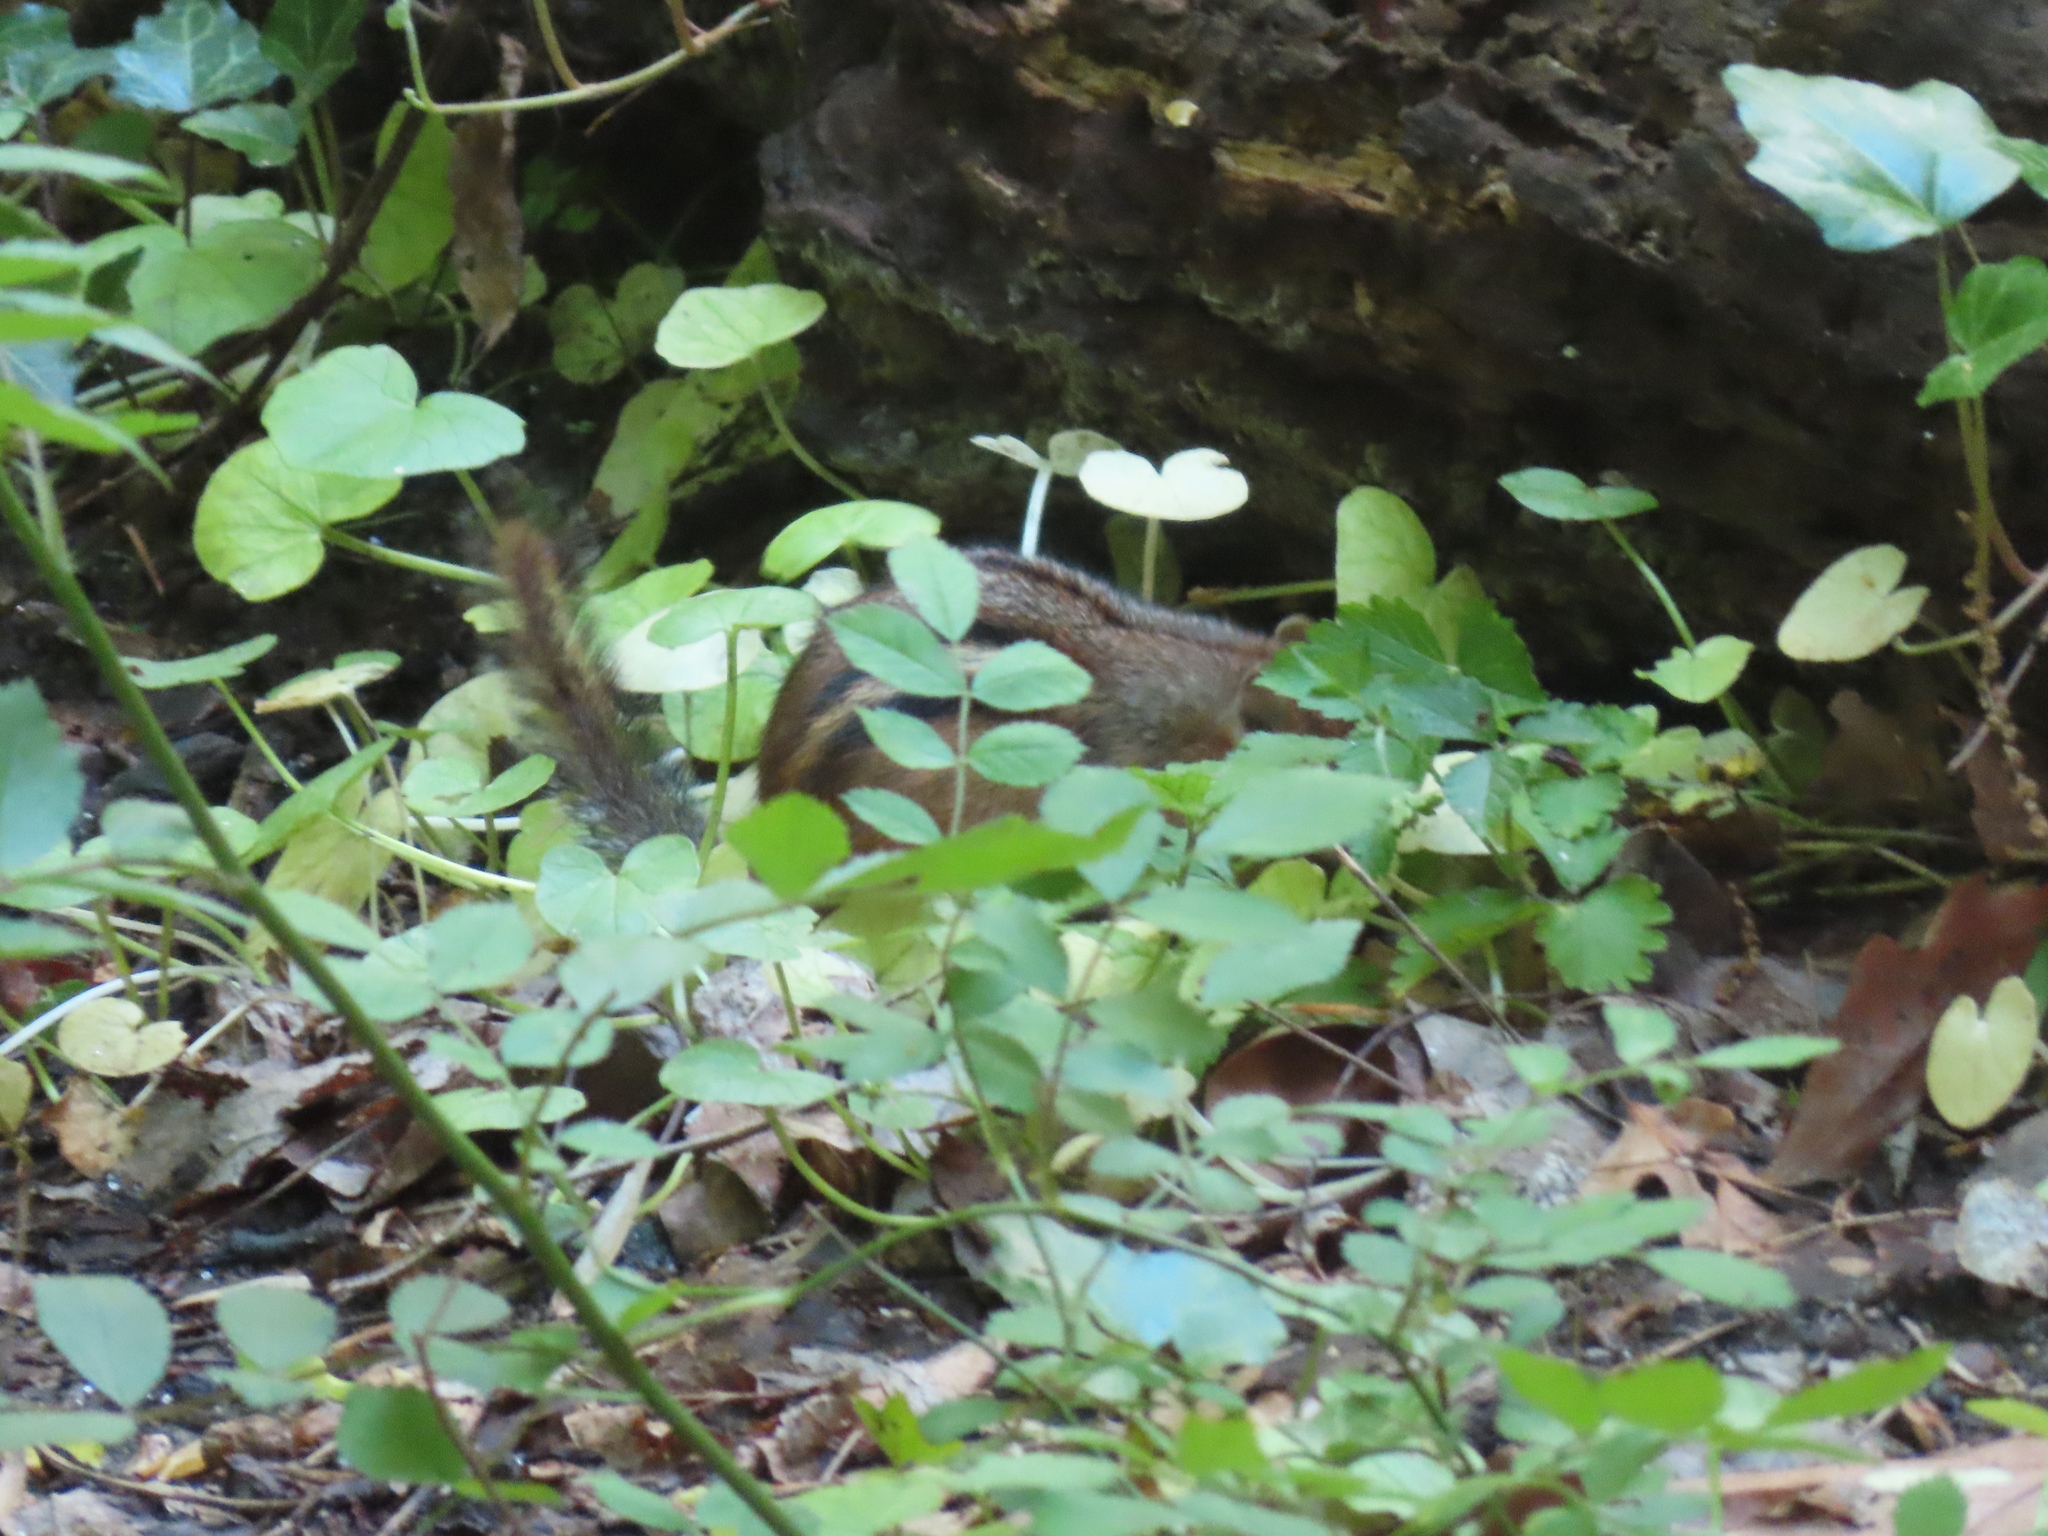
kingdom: Animalia
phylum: Chordata
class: Mammalia
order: Rodentia
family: Sciuridae
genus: Tamias
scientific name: Tamias striatus
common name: Eastern chipmunk
